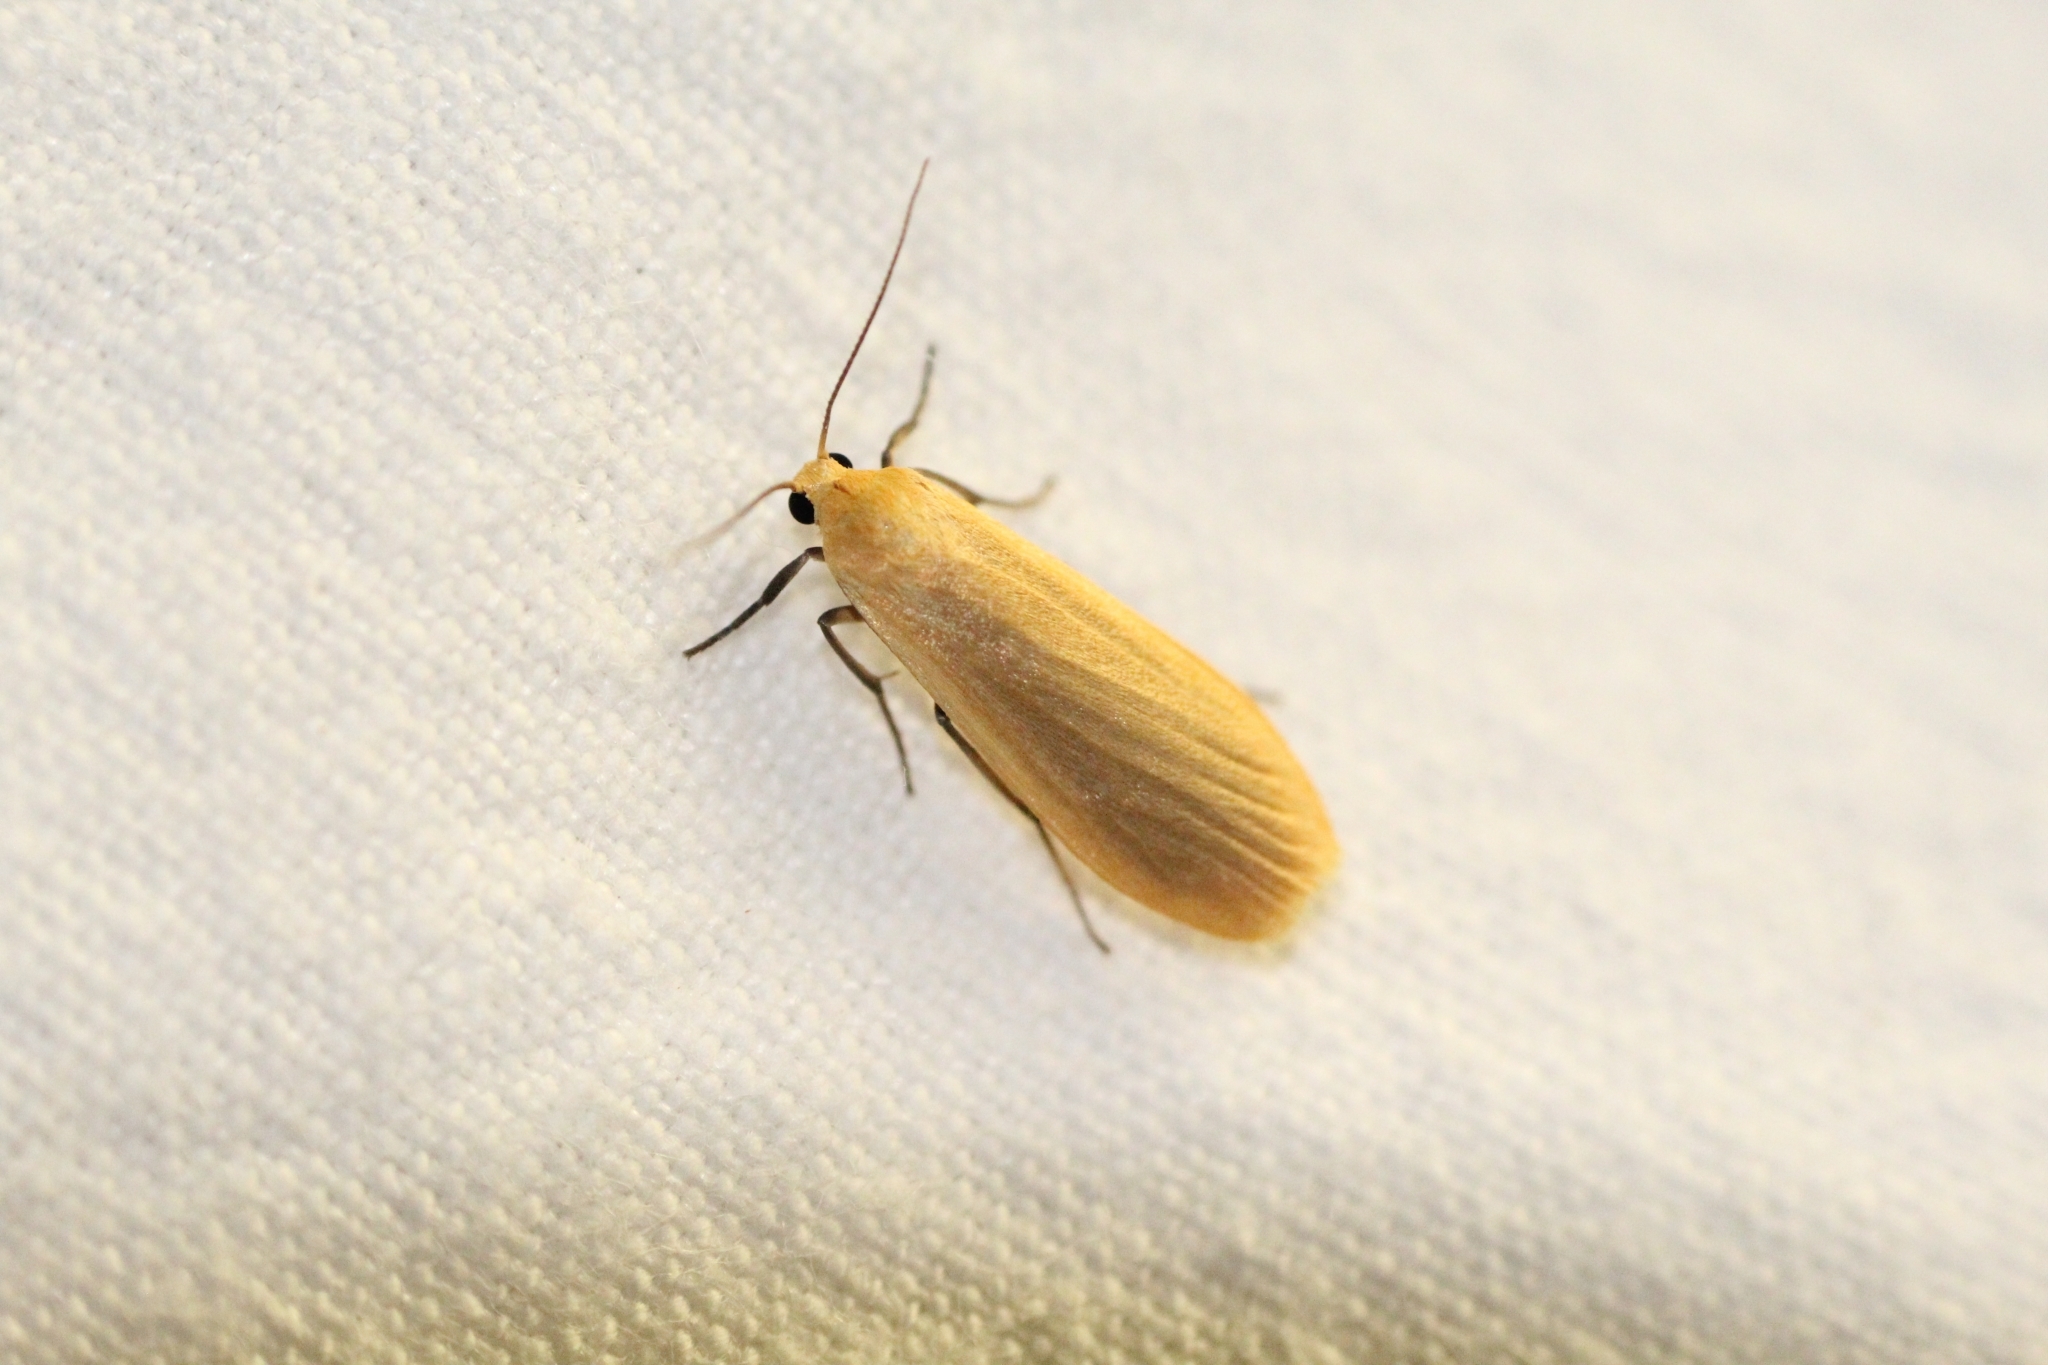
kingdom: Animalia
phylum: Arthropoda
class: Insecta
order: Lepidoptera
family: Erebidae
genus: Wittia
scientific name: Wittia sororcula
